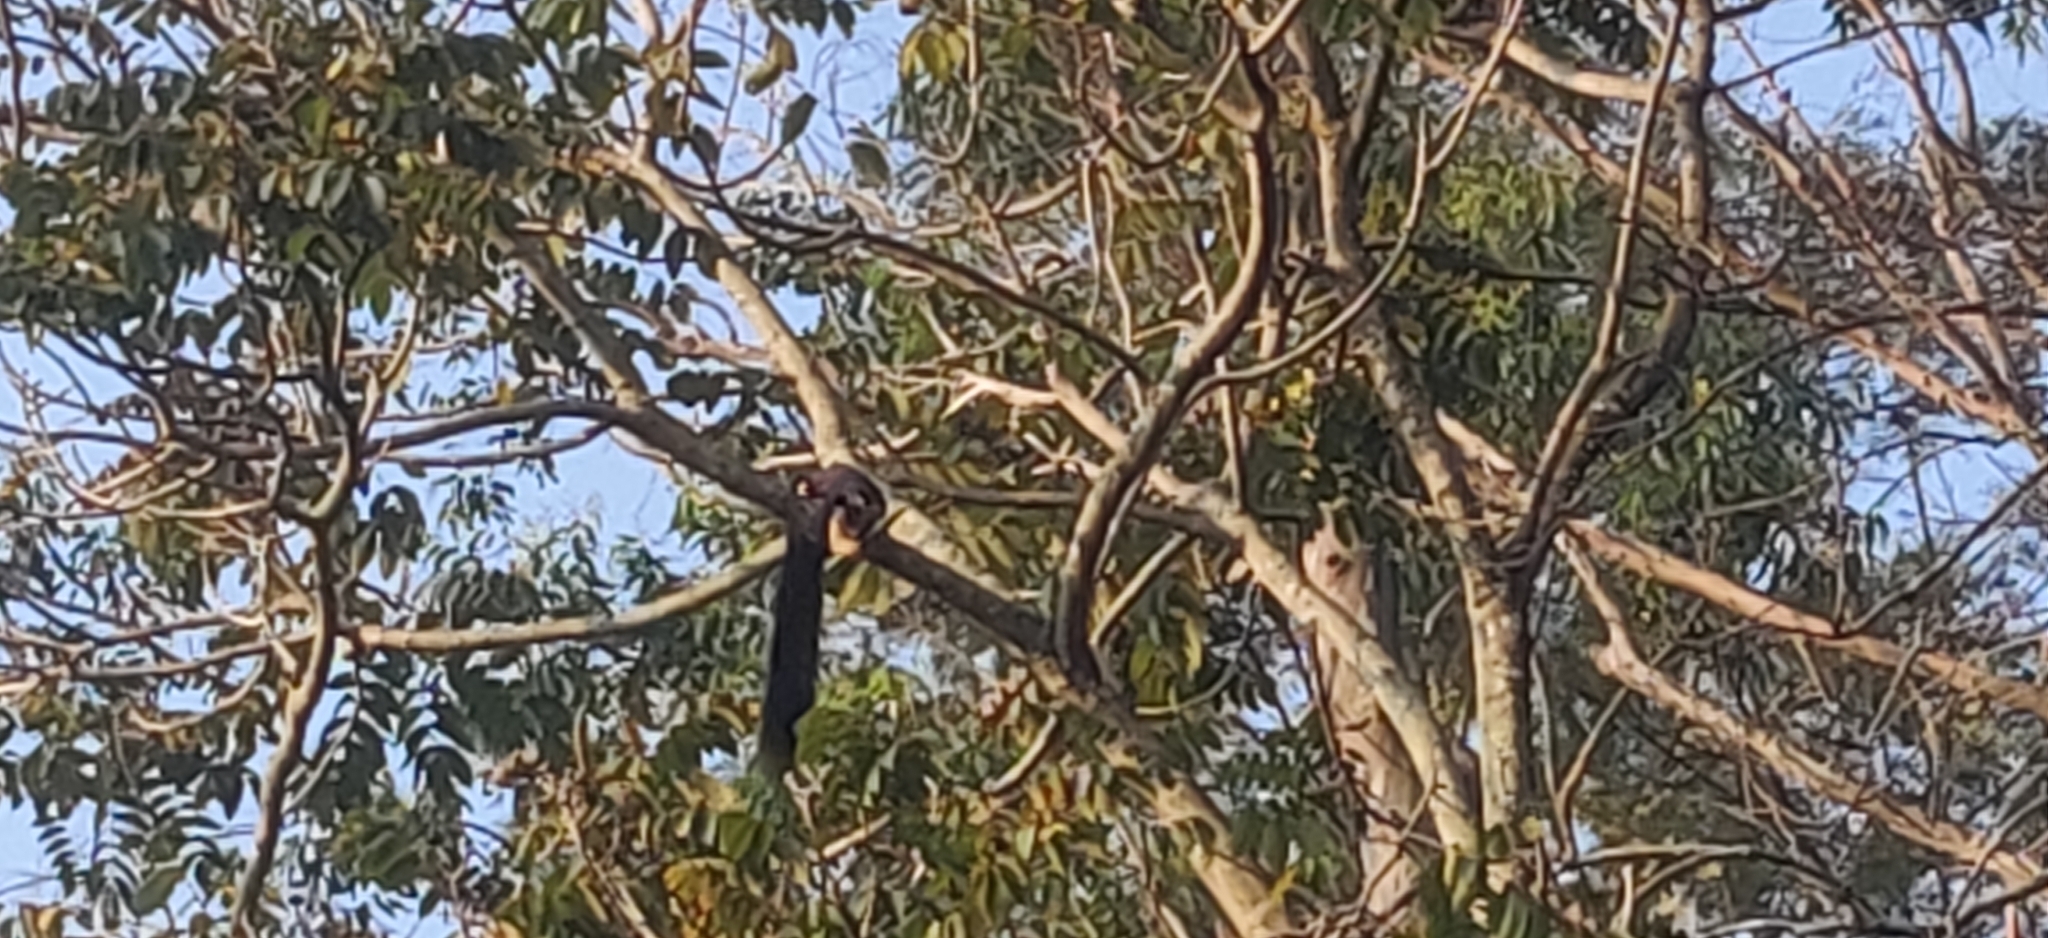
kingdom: Plantae
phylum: Tracheophyta
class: Magnoliopsida
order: Lamiales
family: Bignoniaceae
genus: Spathodea
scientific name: Spathodea campanulata
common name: African tuliptree
